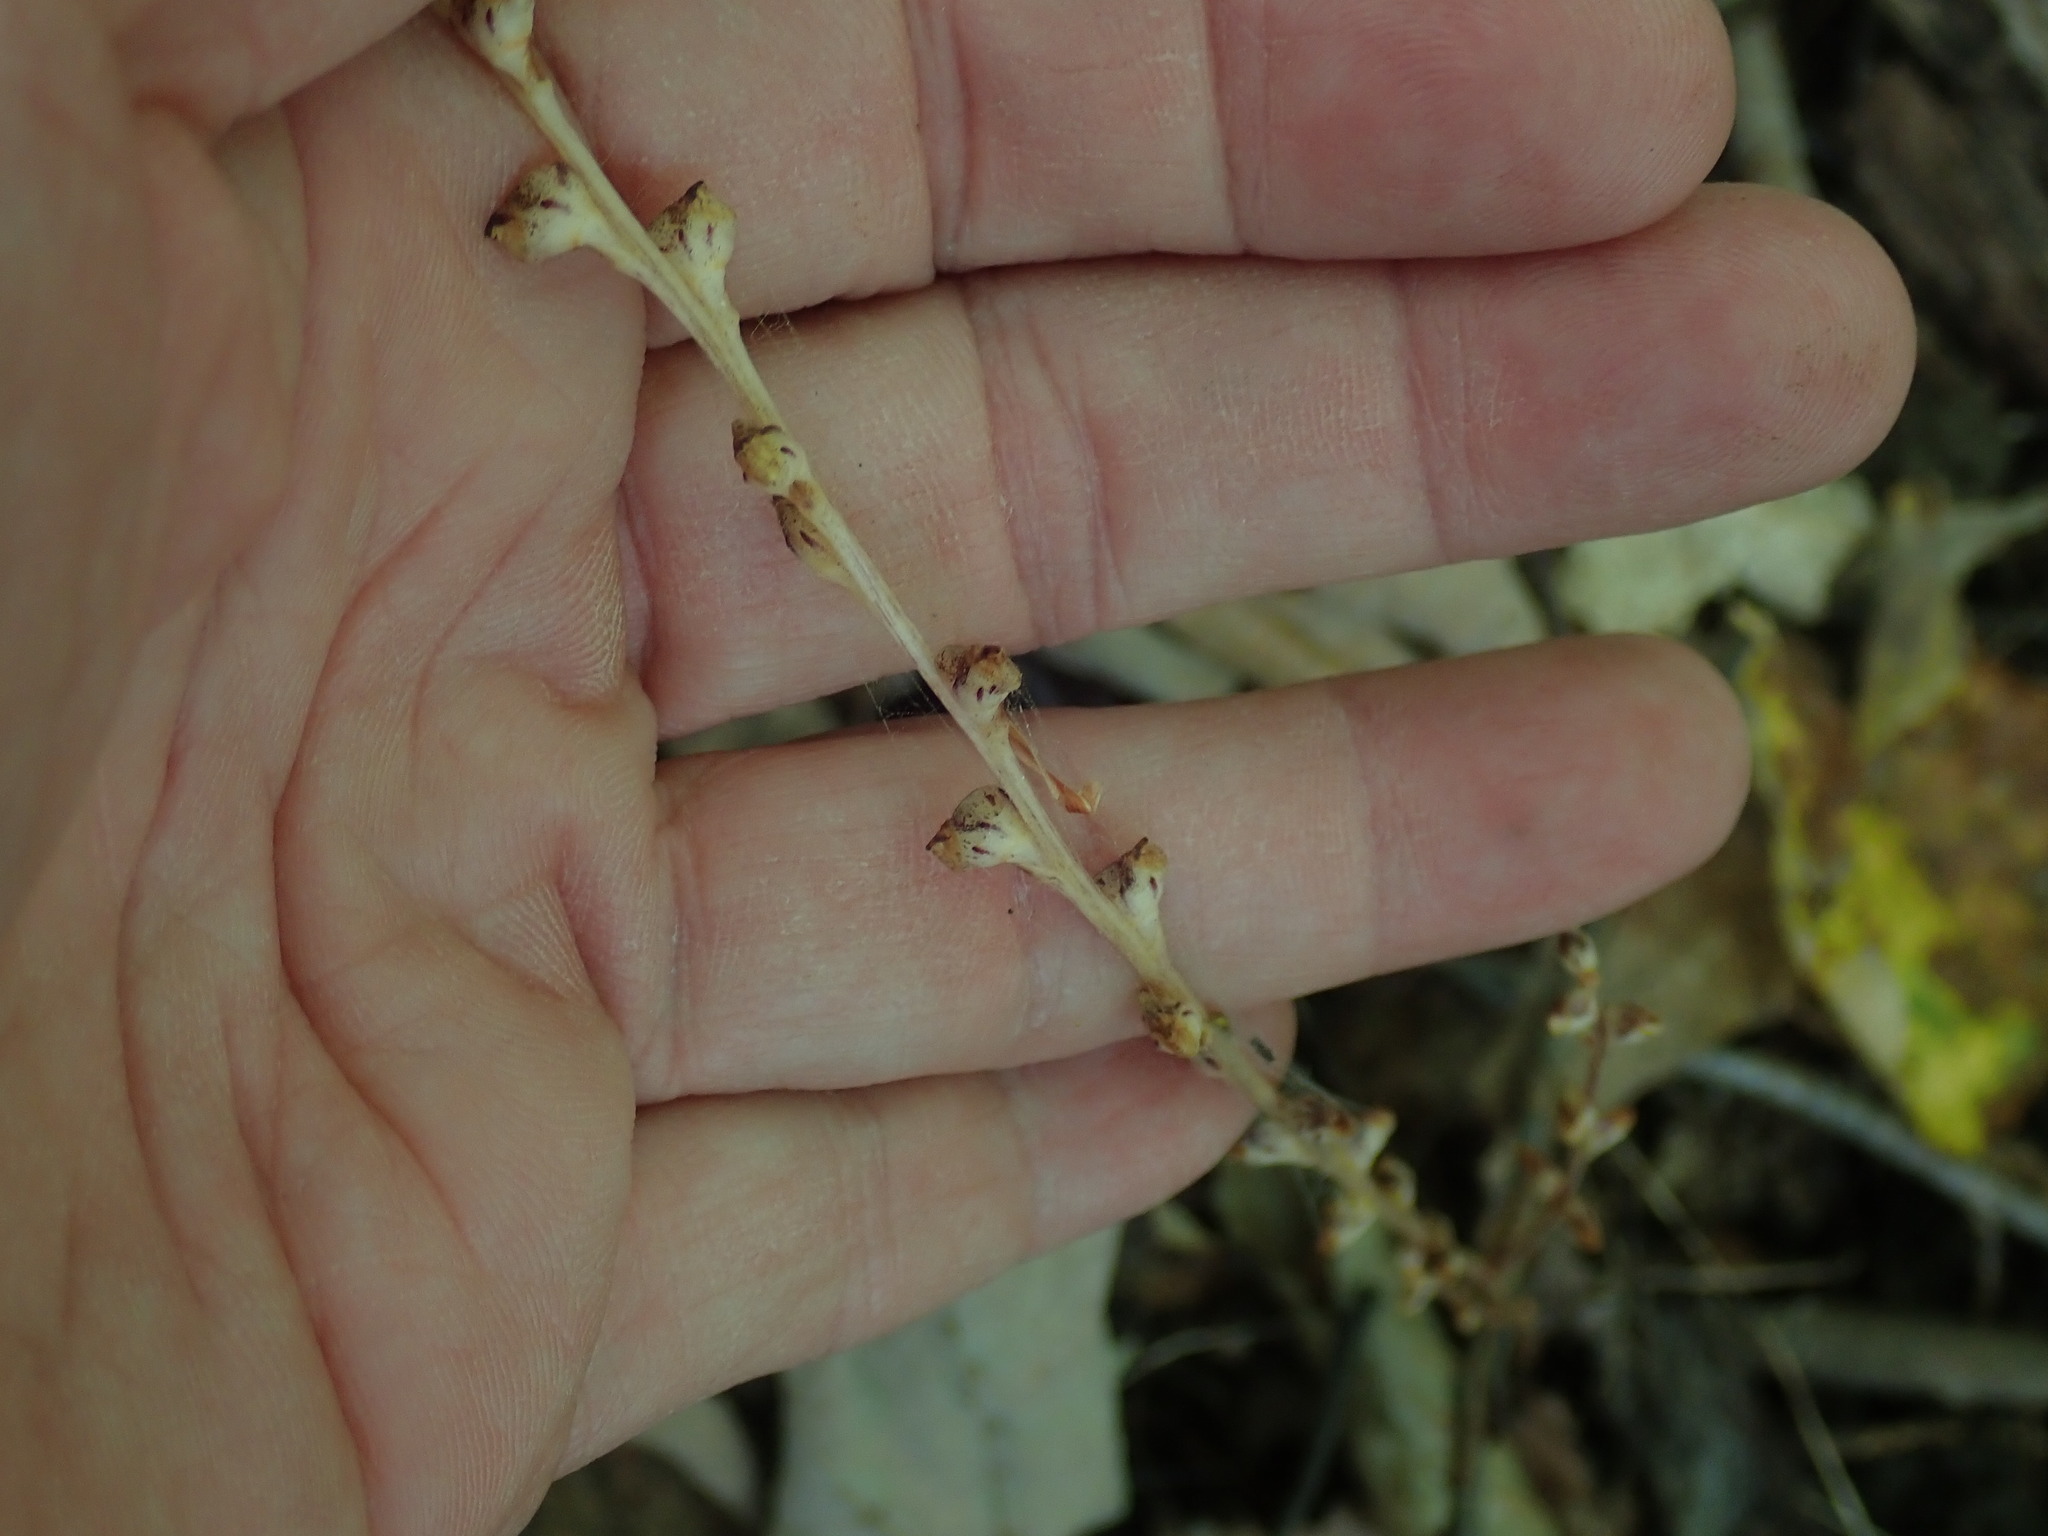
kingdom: Plantae
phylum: Tracheophyta
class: Magnoliopsida
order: Lamiales
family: Orobanchaceae
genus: Epifagus
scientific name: Epifagus virginiana
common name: Beechdrops
